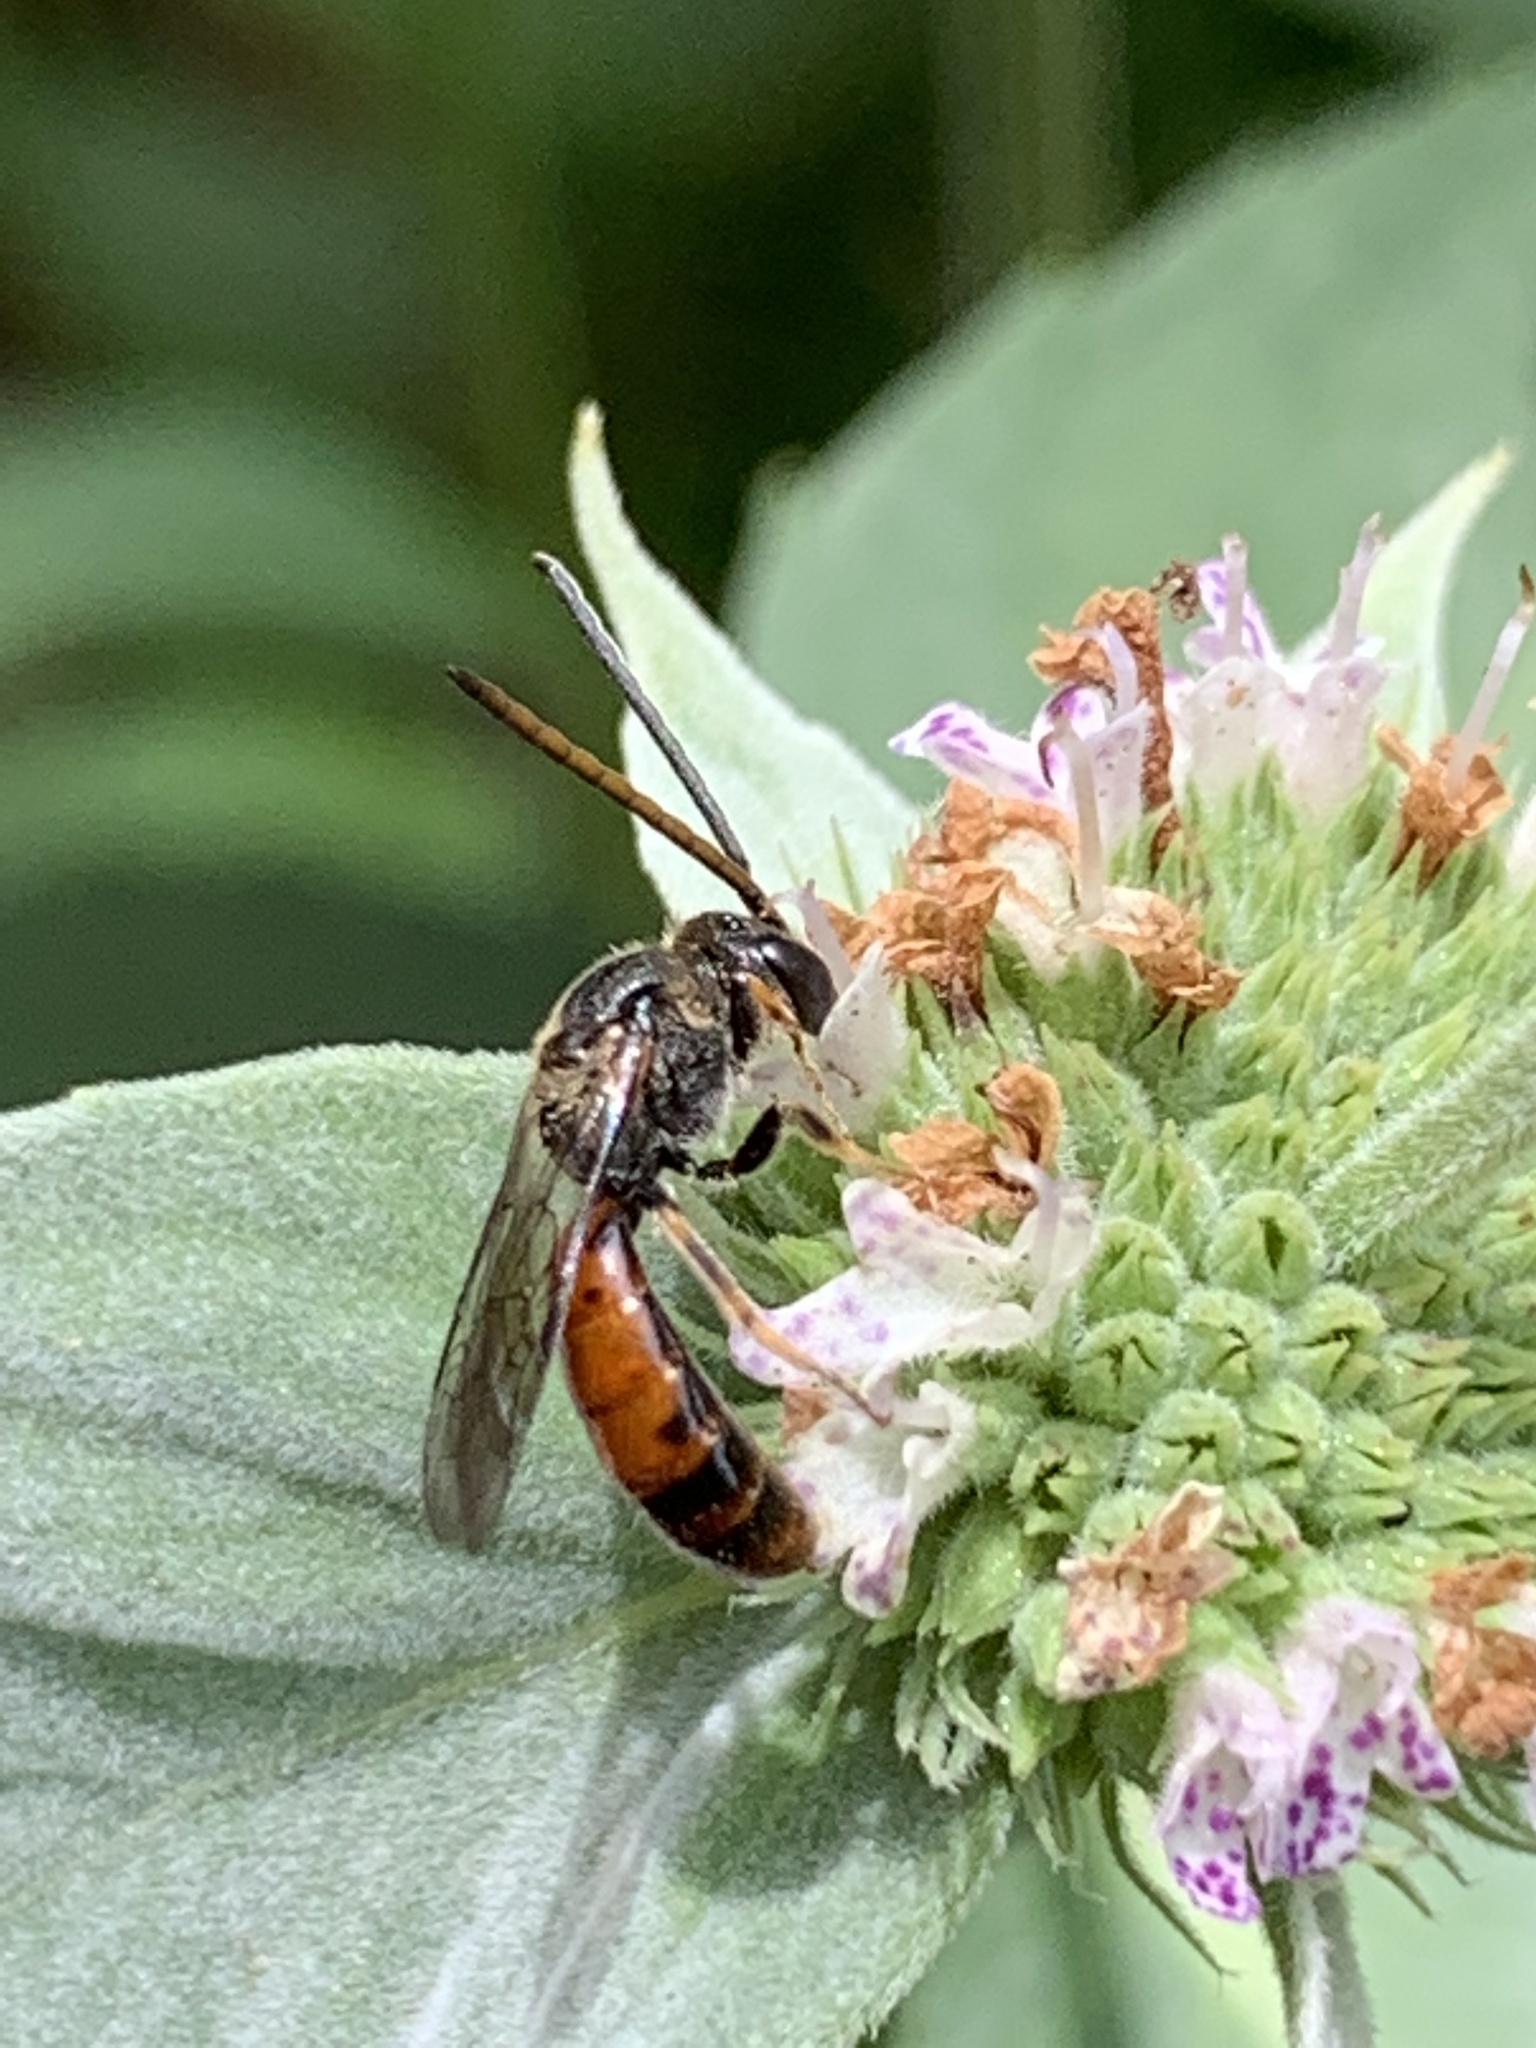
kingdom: Animalia
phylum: Arthropoda
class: Insecta
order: Hymenoptera
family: Halictidae
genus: Lasioglossum
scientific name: Lasioglossum quebecense
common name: Quebec sweat bee
